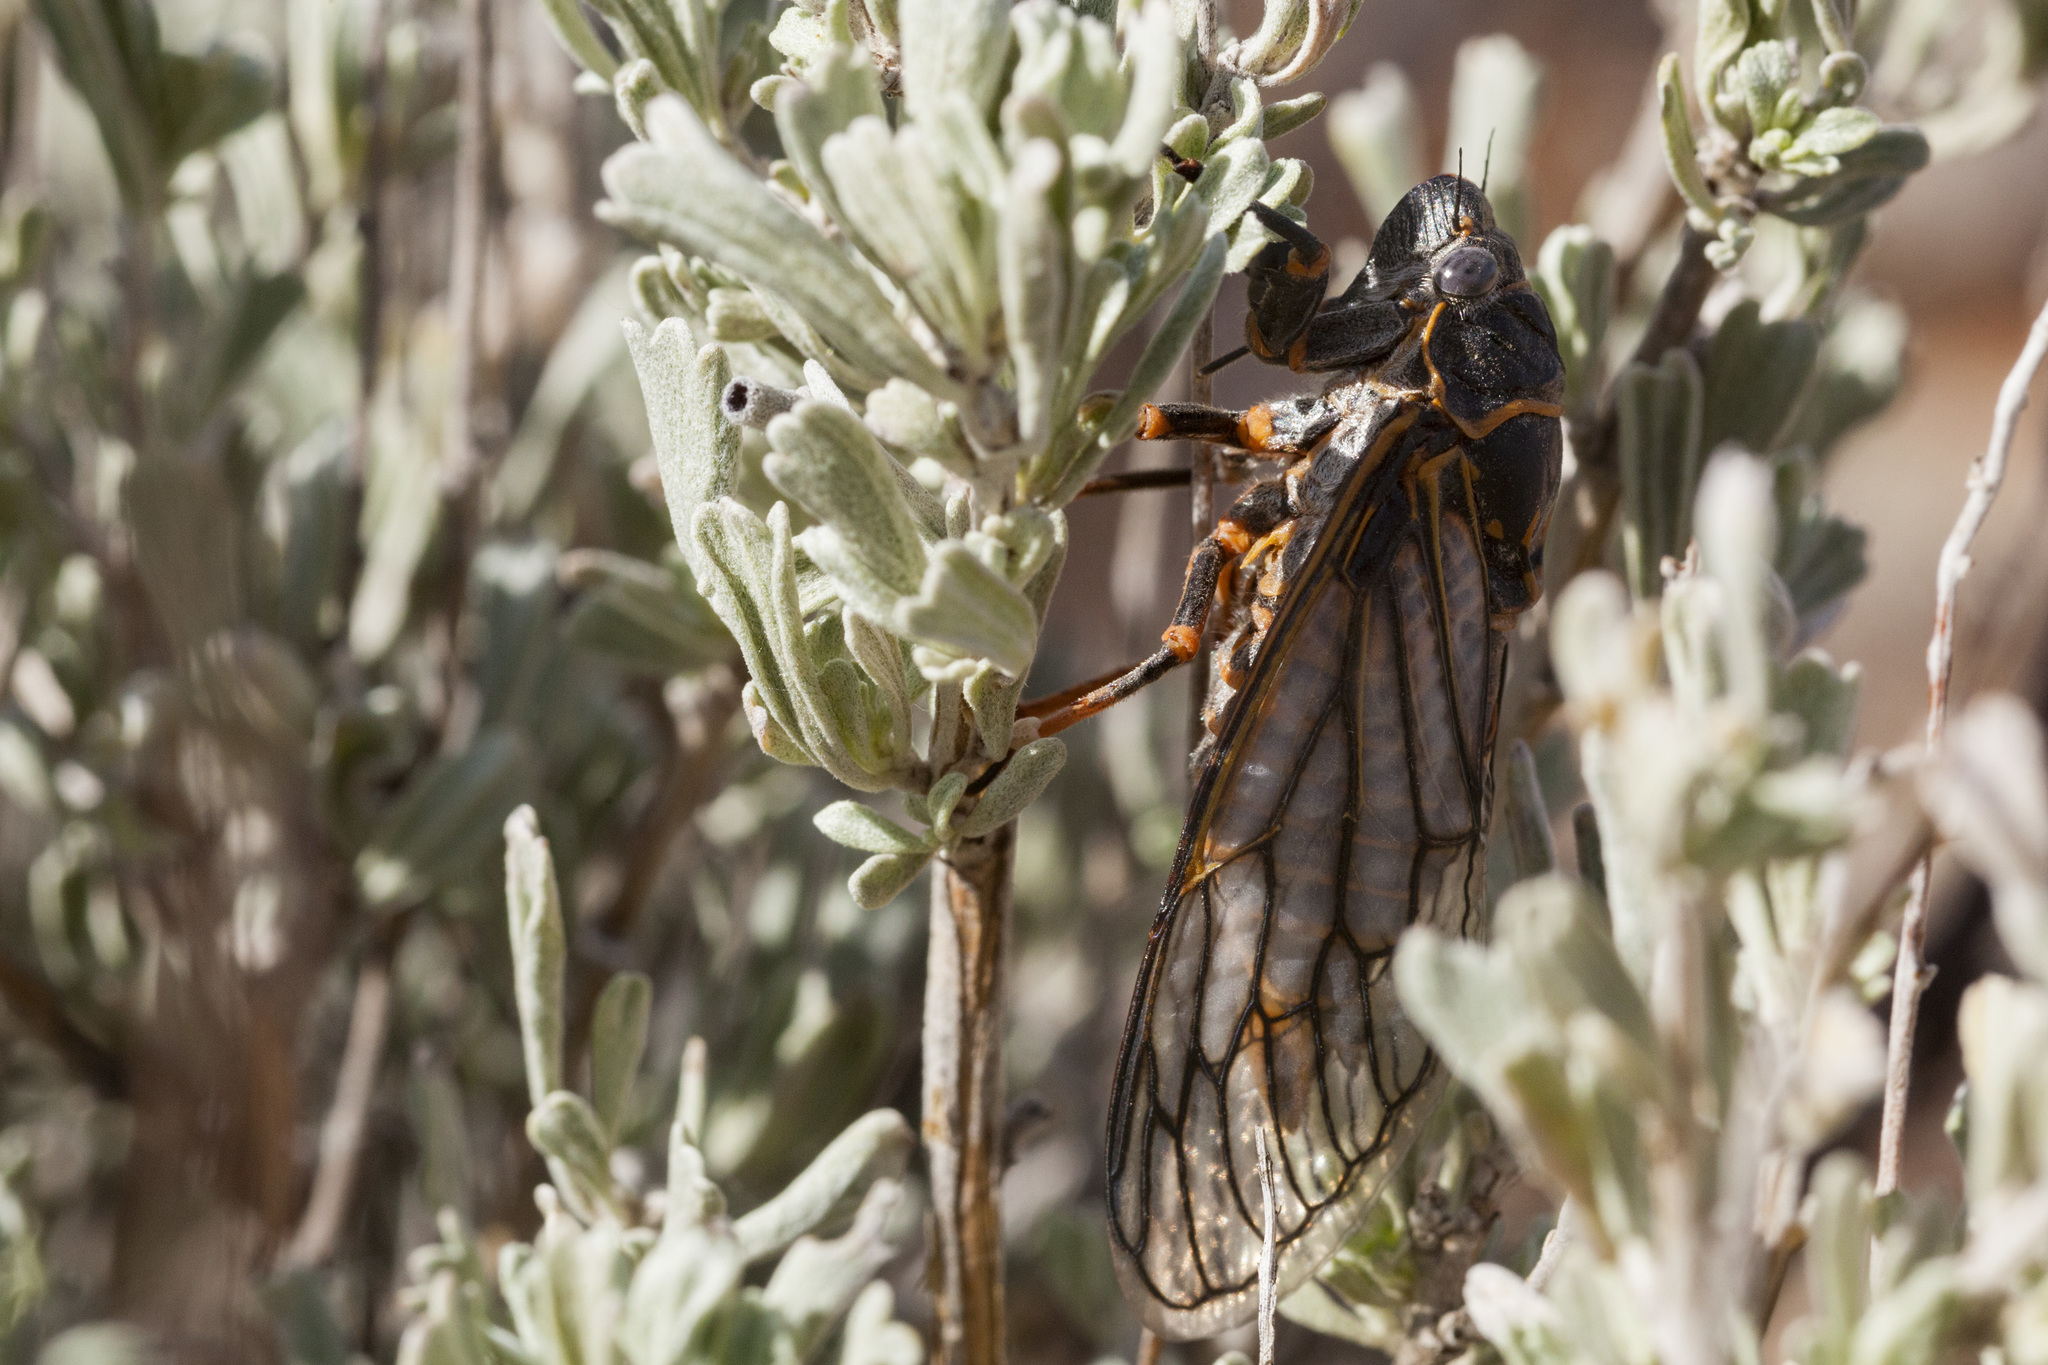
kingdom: Animalia
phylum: Arthropoda
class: Insecta
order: Hemiptera
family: Cicadidae
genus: Okanagana
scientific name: Okanagana fumipennis
